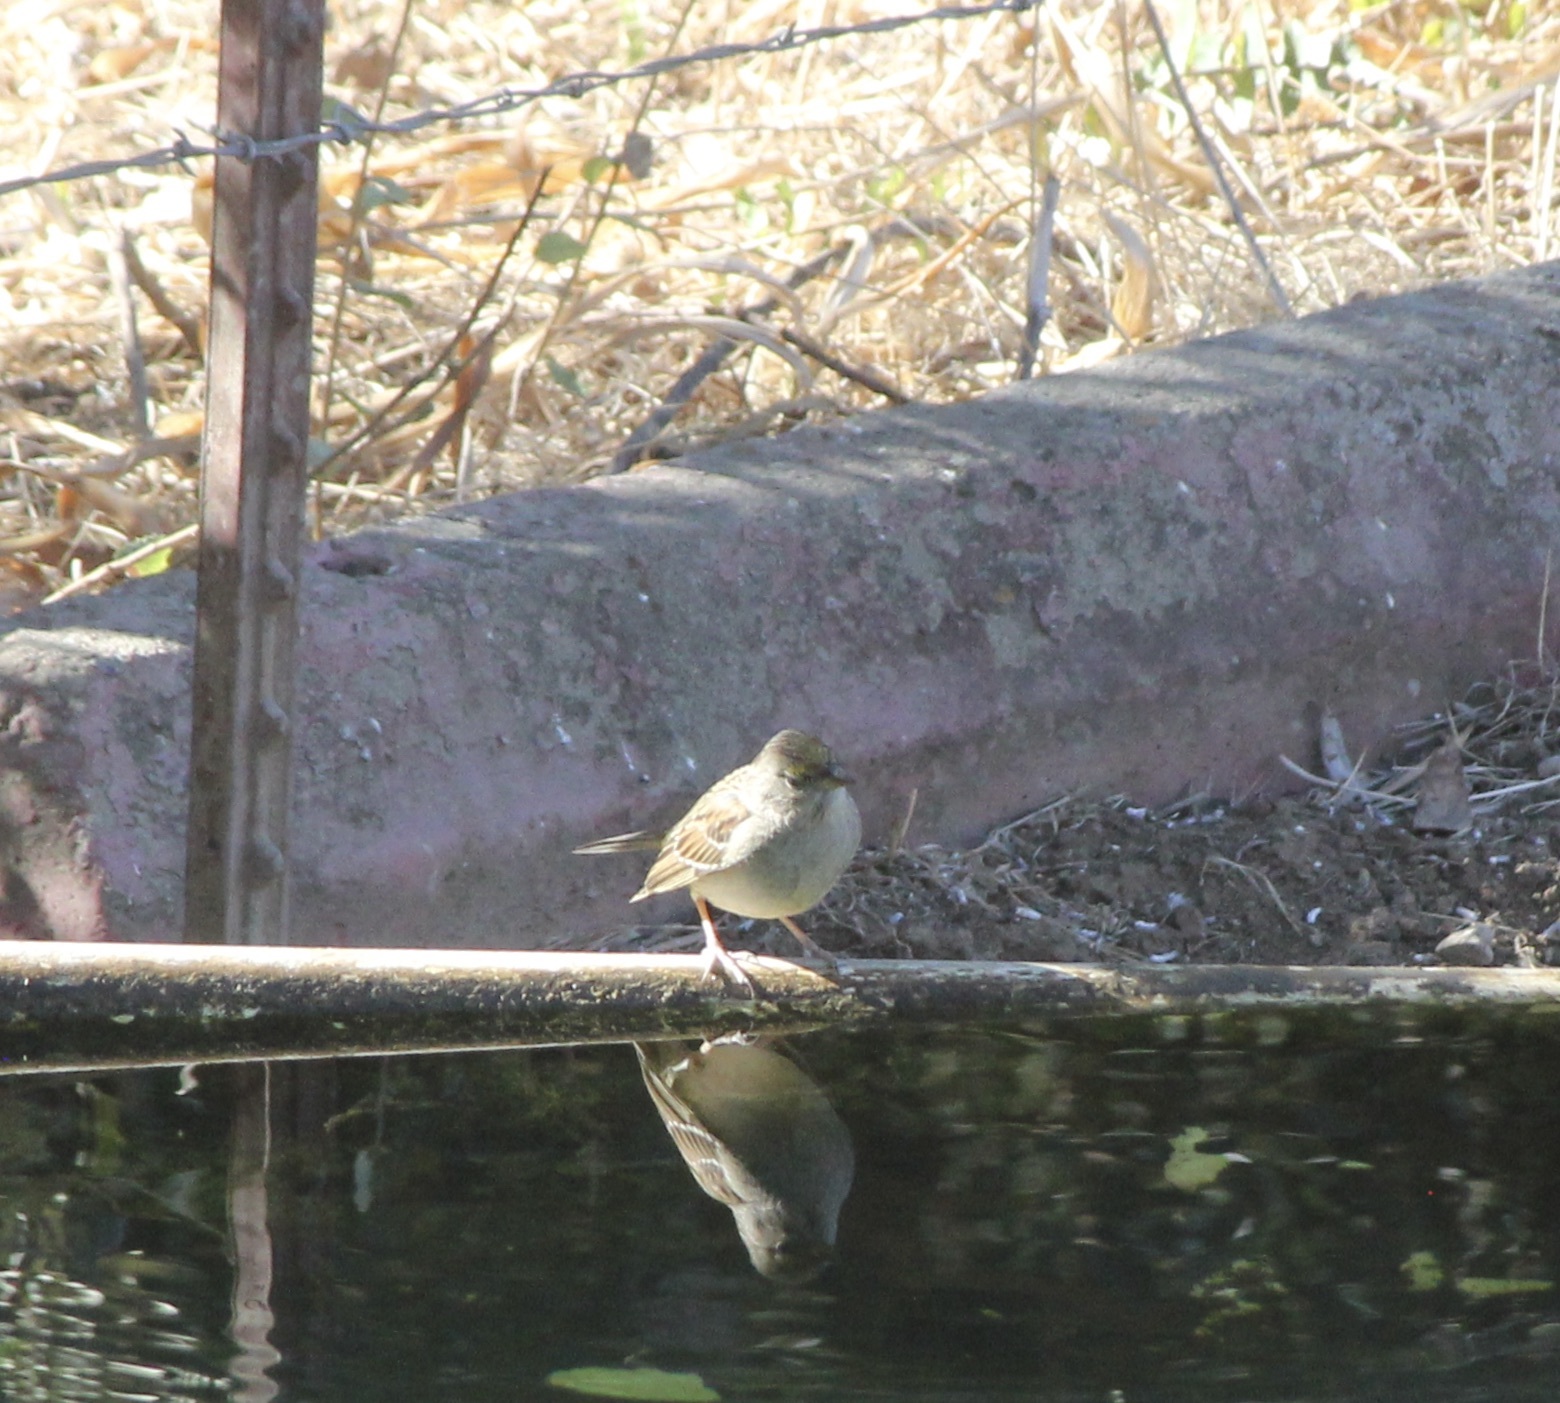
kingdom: Animalia
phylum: Chordata
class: Aves
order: Passeriformes
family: Passerellidae
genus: Zonotrichia
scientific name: Zonotrichia atricapilla
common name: Golden-crowned sparrow
